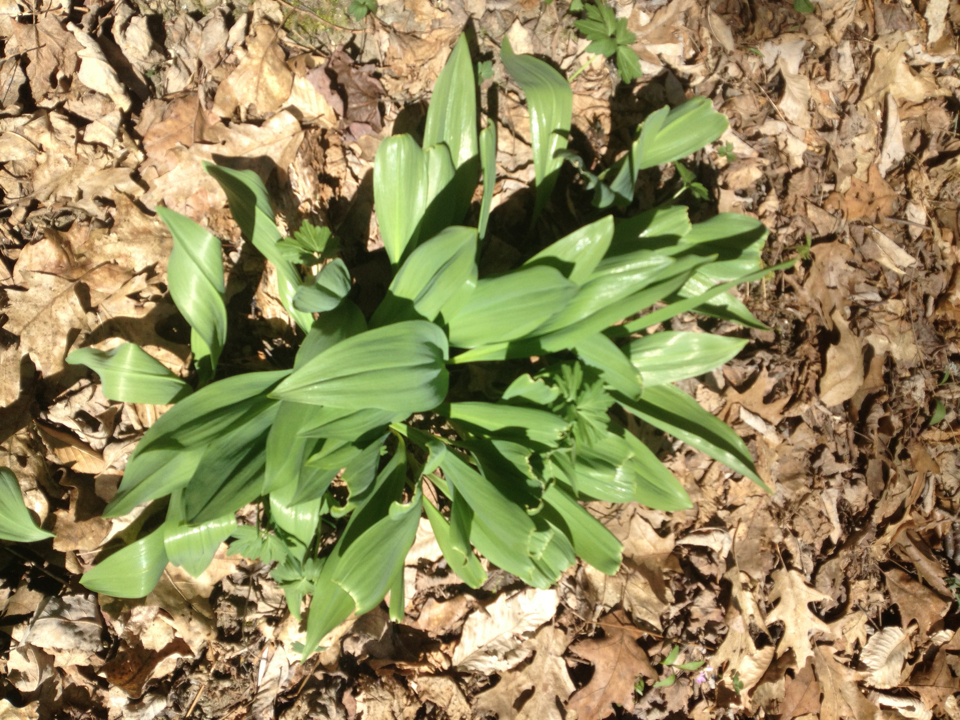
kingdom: Plantae
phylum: Tracheophyta
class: Liliopsida
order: Asparagales
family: Amaryllidaceae
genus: Allium
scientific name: Allium tricoccum
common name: Ramp
